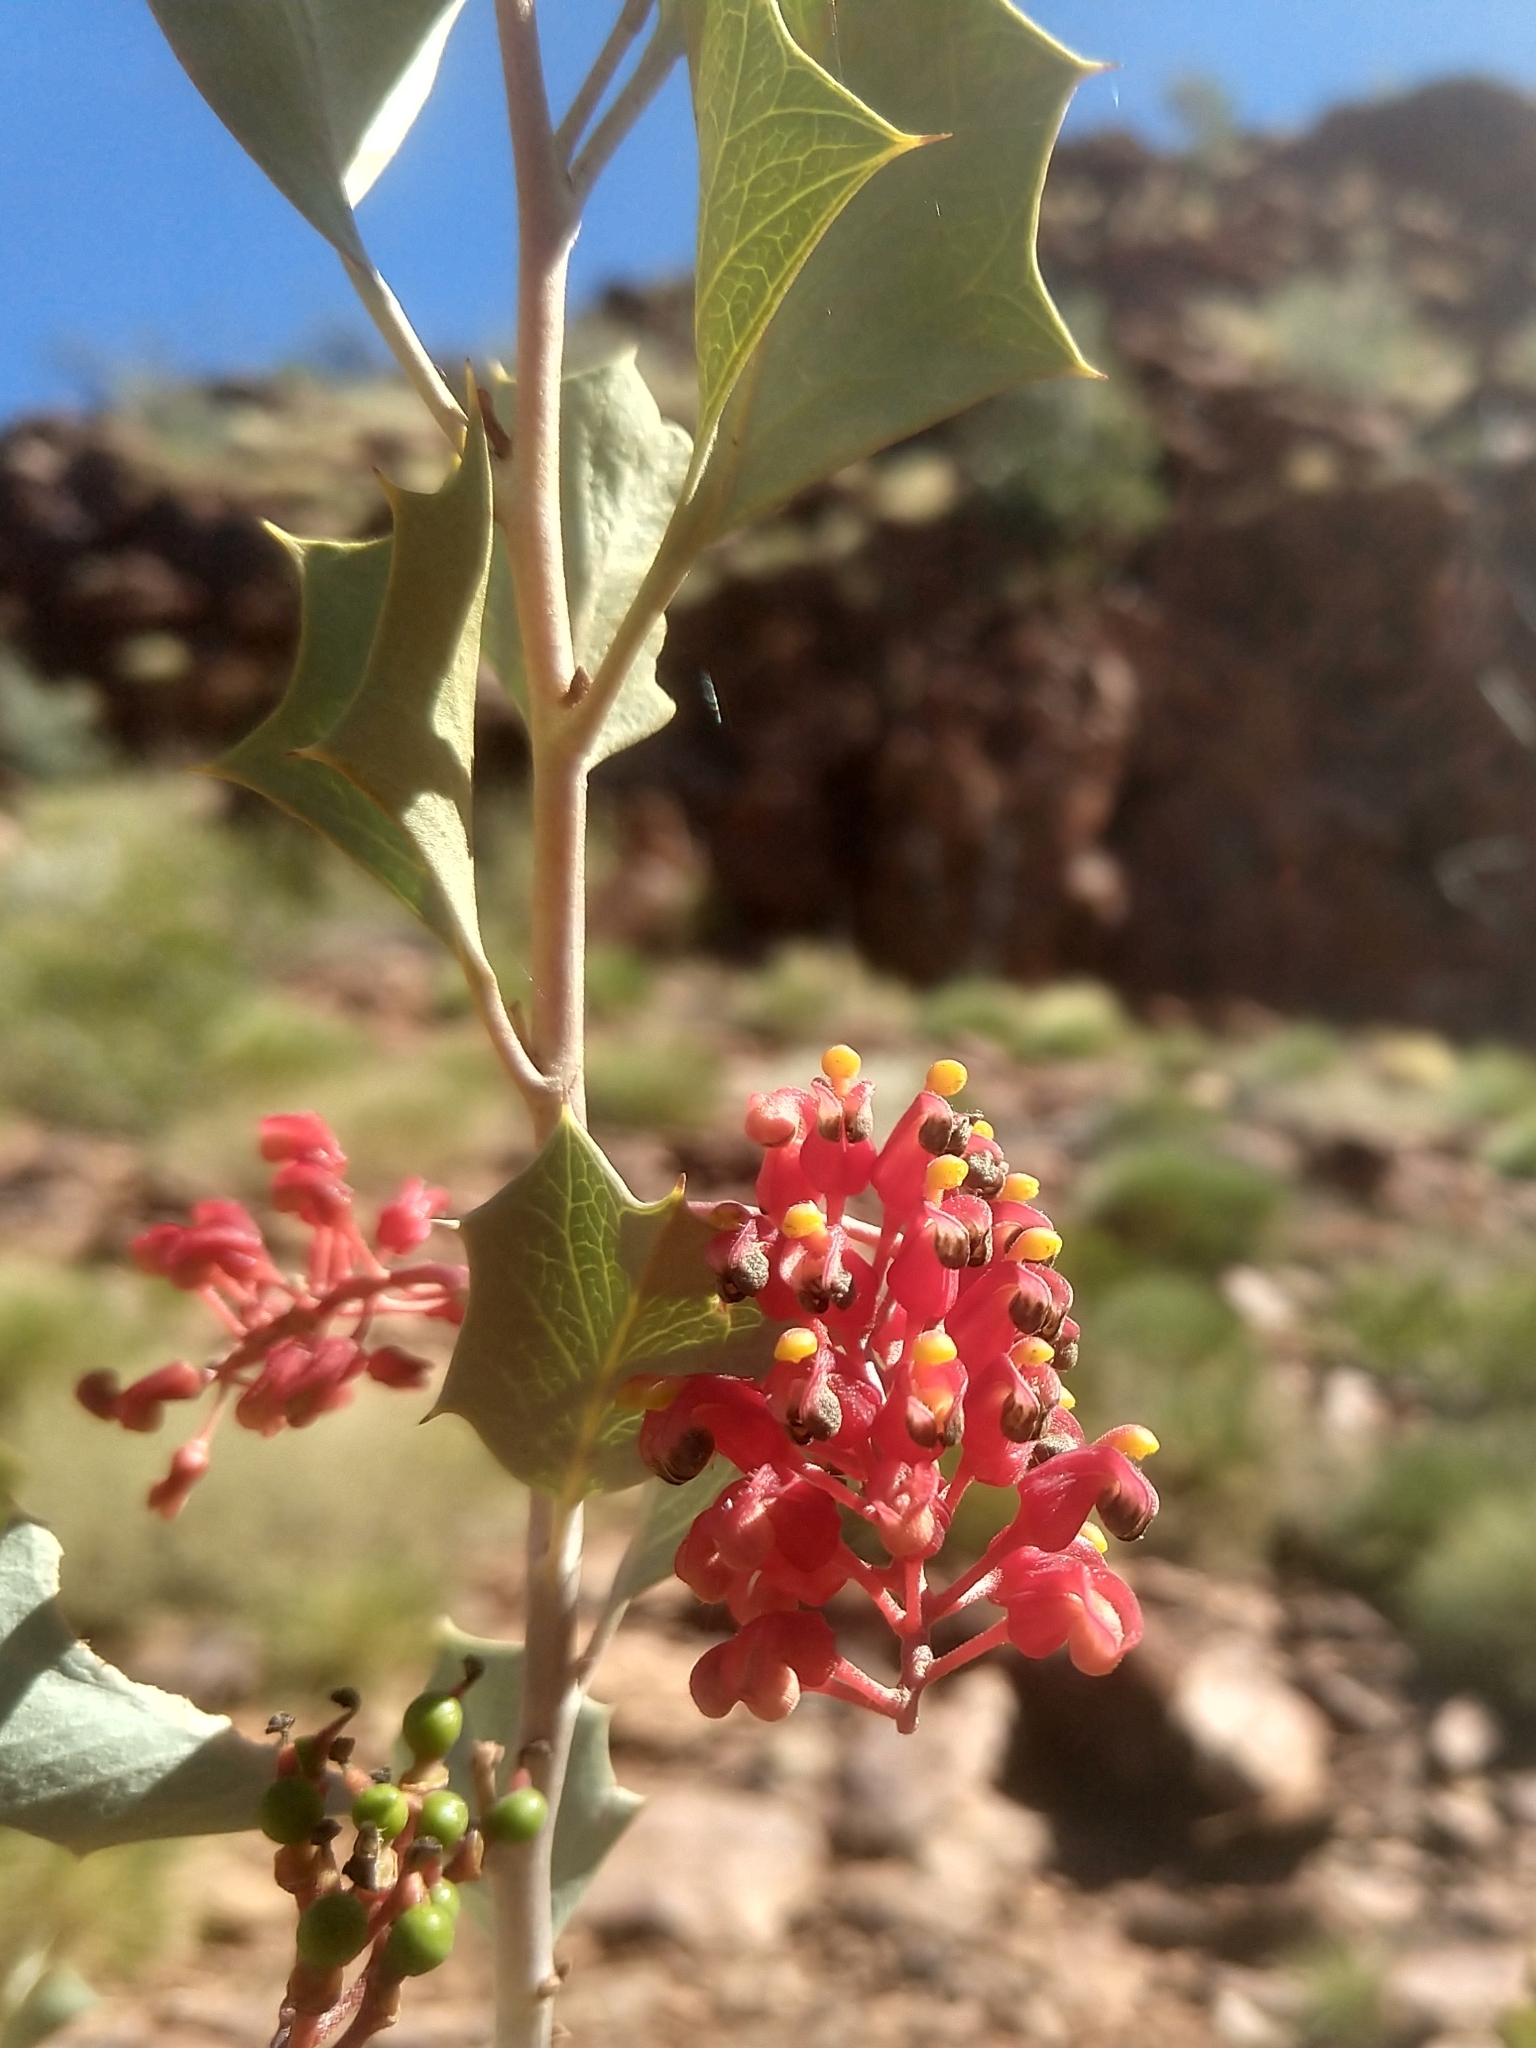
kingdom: Plantae
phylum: Tracheophyta
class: Magnoliopsida
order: Proteales
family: Proteaceae
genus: Grevillea
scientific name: Grevillea wickhamii
